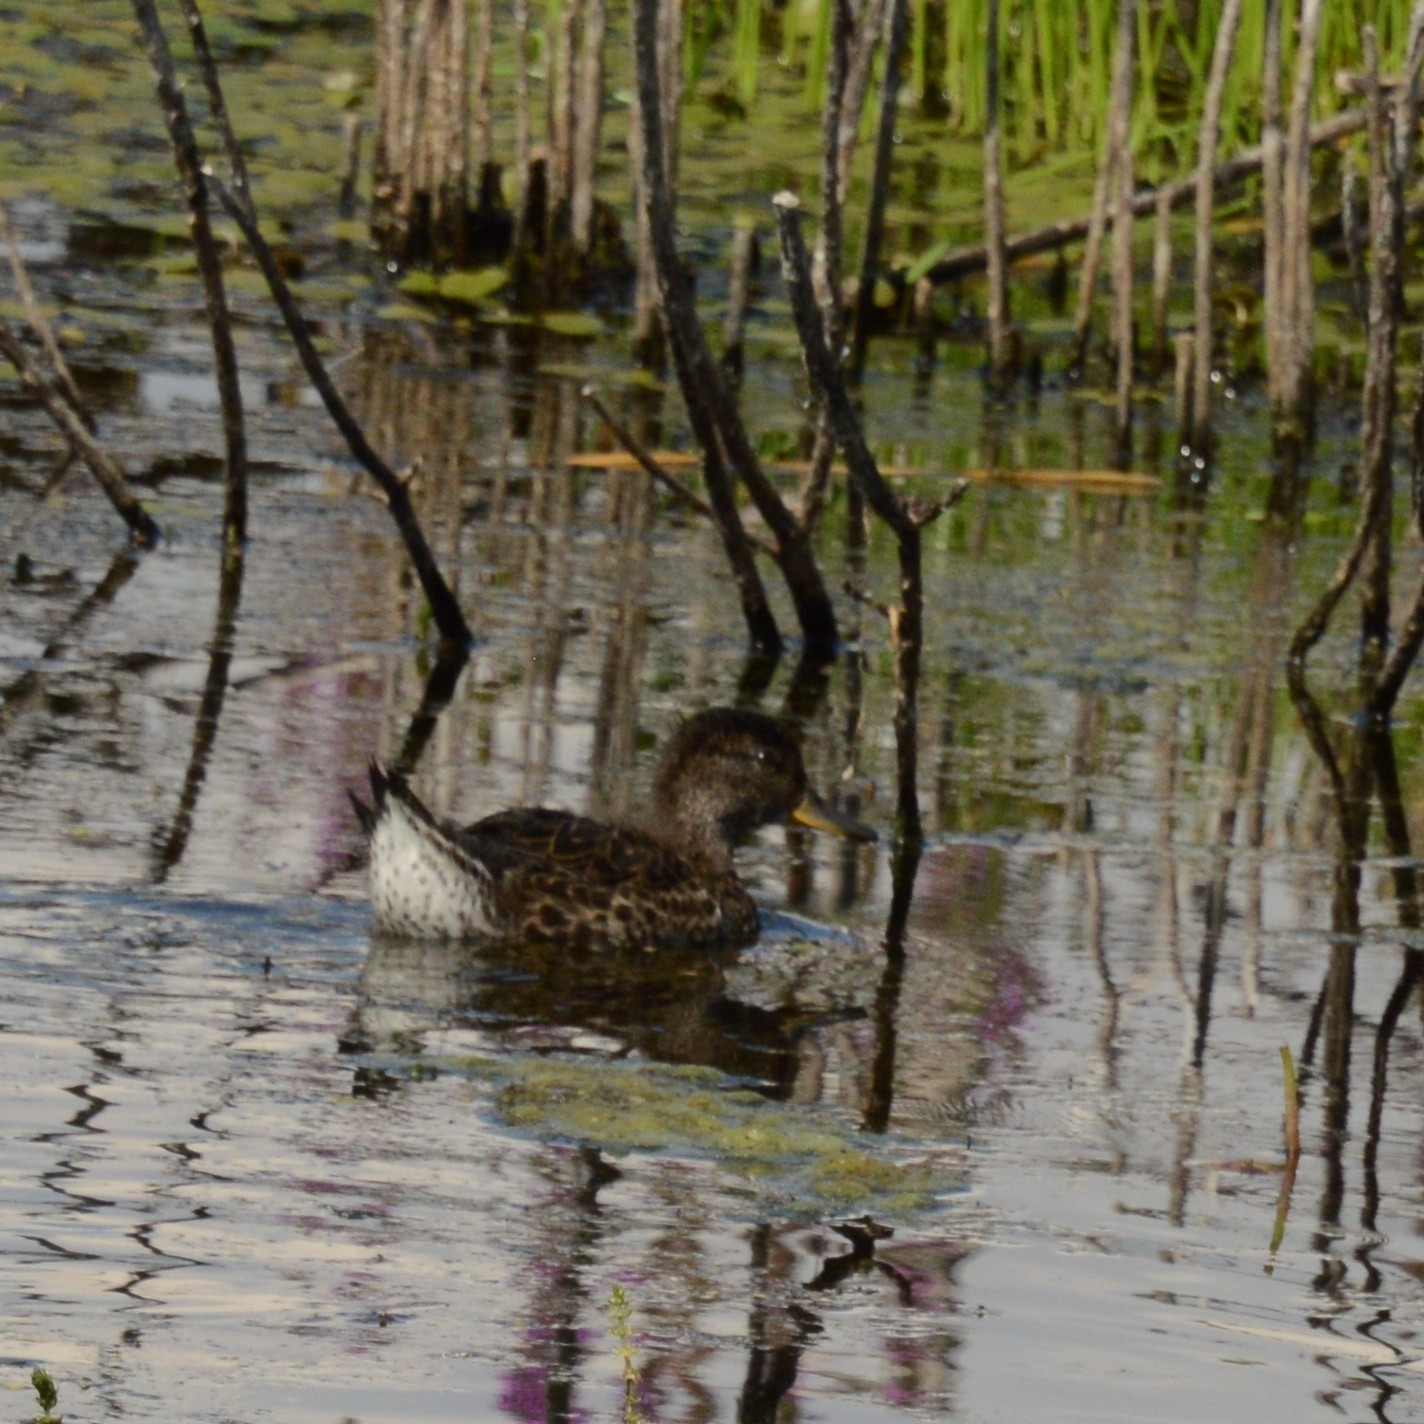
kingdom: Animalia
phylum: Chordata
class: Aves
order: Anseriformes
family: Anatidae
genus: Anas
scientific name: Anas crecca
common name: Eurasian teal
